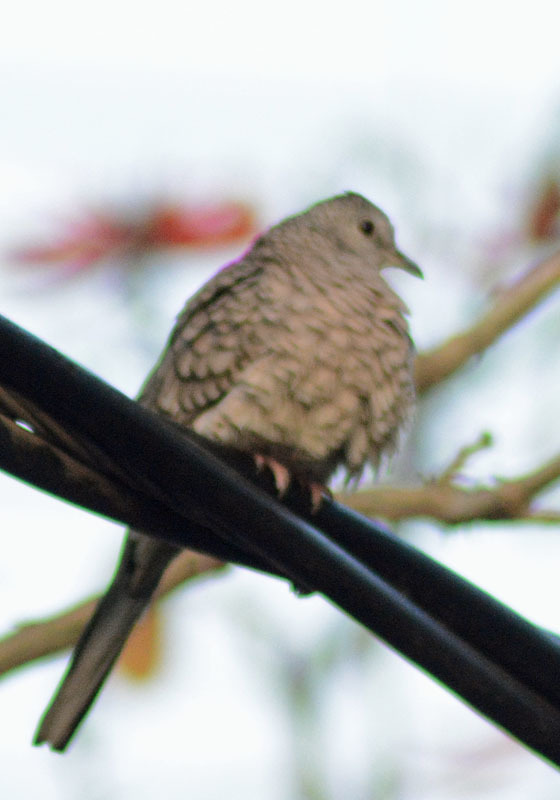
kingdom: Animalia
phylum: Chordata
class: Aves
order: Columbiformes
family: Columbidae
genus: Columbina
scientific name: Columbina inca
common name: Inca dove
